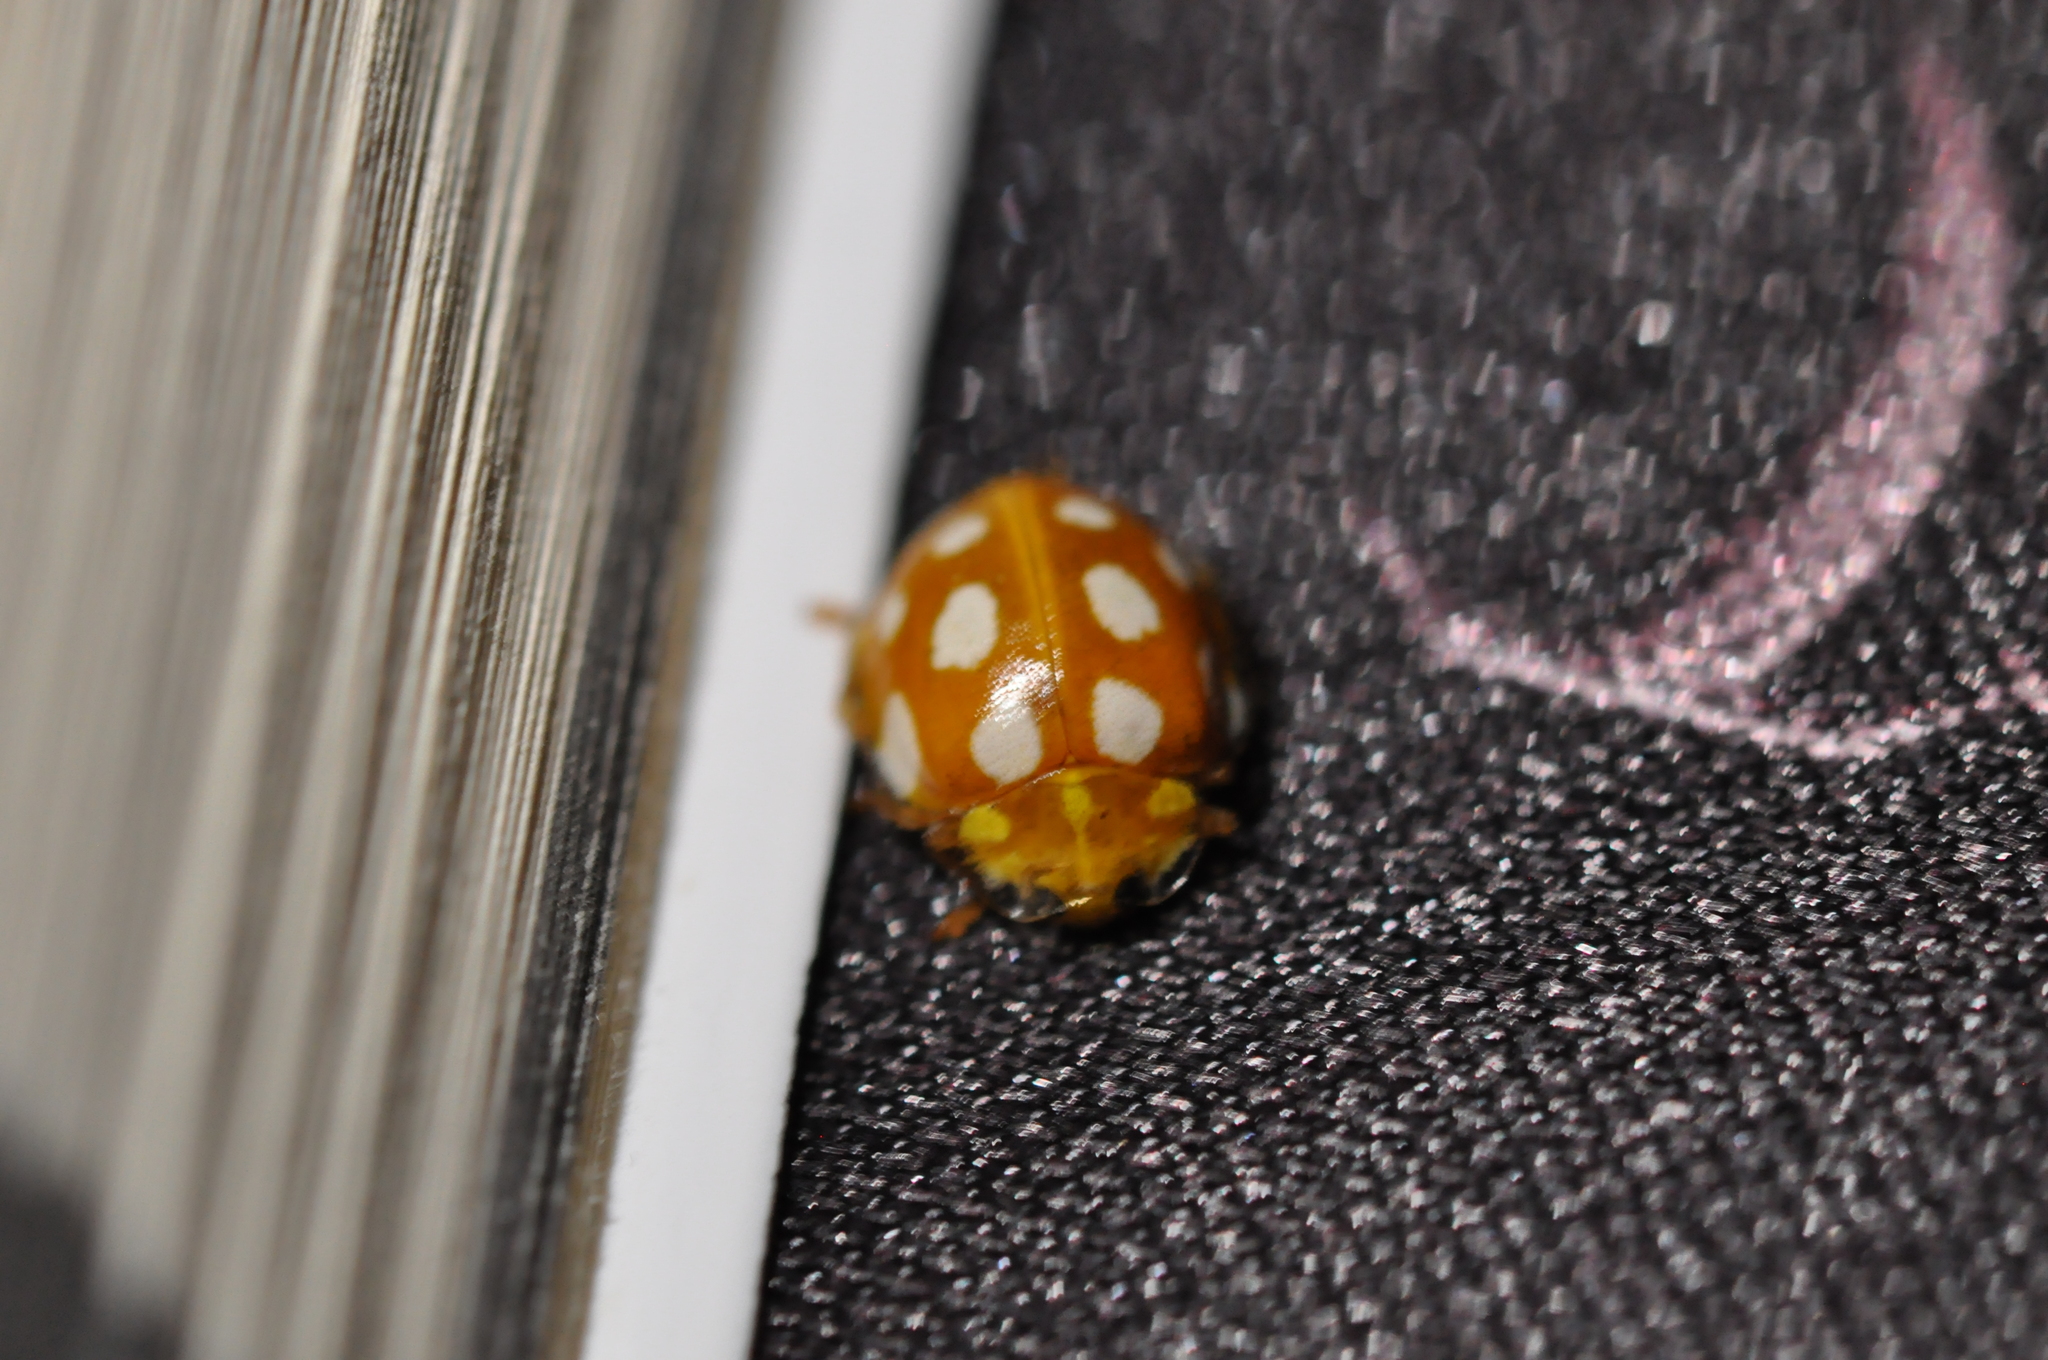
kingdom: Animalia
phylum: Arthropoda
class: Insecta
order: Coleoptera
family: Coccinellidae
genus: Halyzia
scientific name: Halyzia sedecimguttata
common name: Orange ladybird
